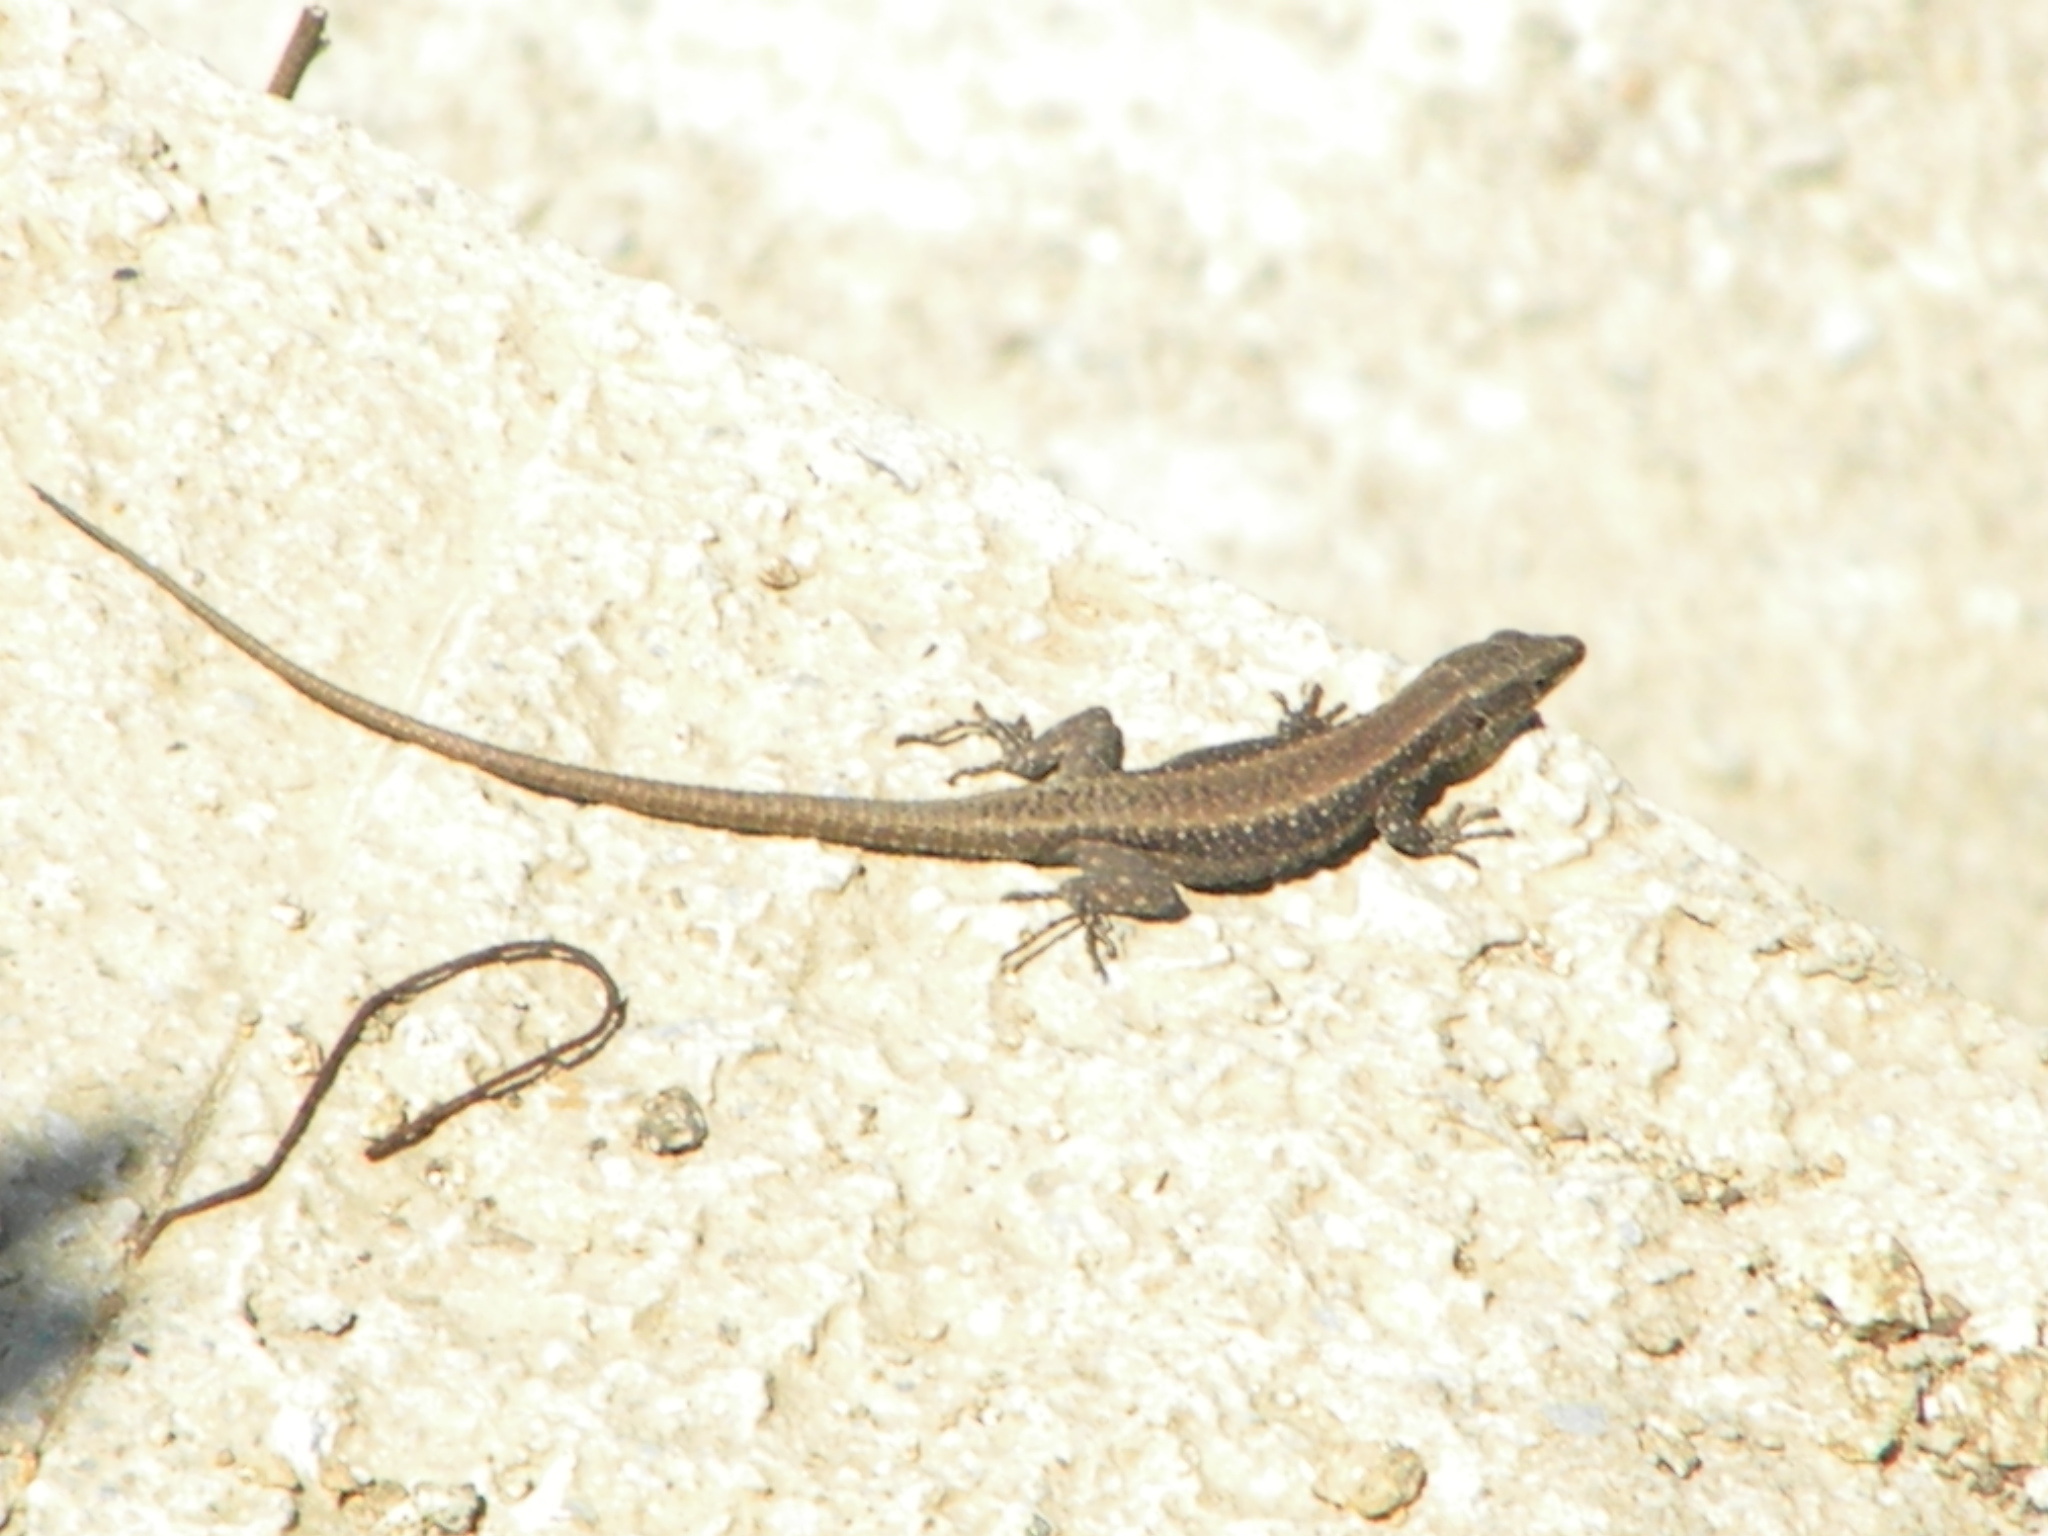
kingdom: Animalia
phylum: Chordata
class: Squamata
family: Lacertidae
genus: Anatololacerta
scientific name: Anatololacerta anatolica
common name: Anatolian rock lizard
